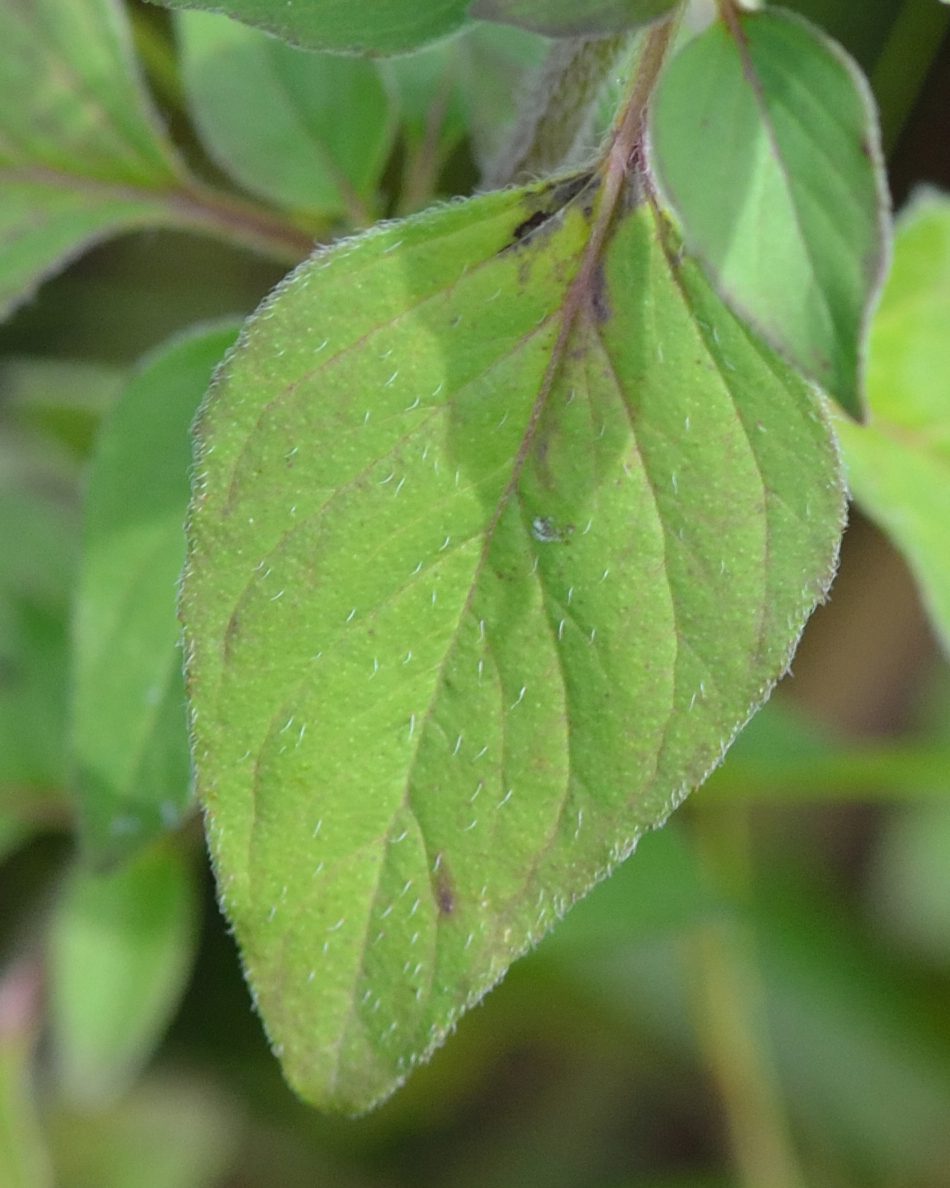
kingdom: Plantae
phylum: Tracheophyta
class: Magnoliopsida
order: Lamiales
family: Lamiaceae
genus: Origanum
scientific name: Origanum vulgare
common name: Wild marjoram
